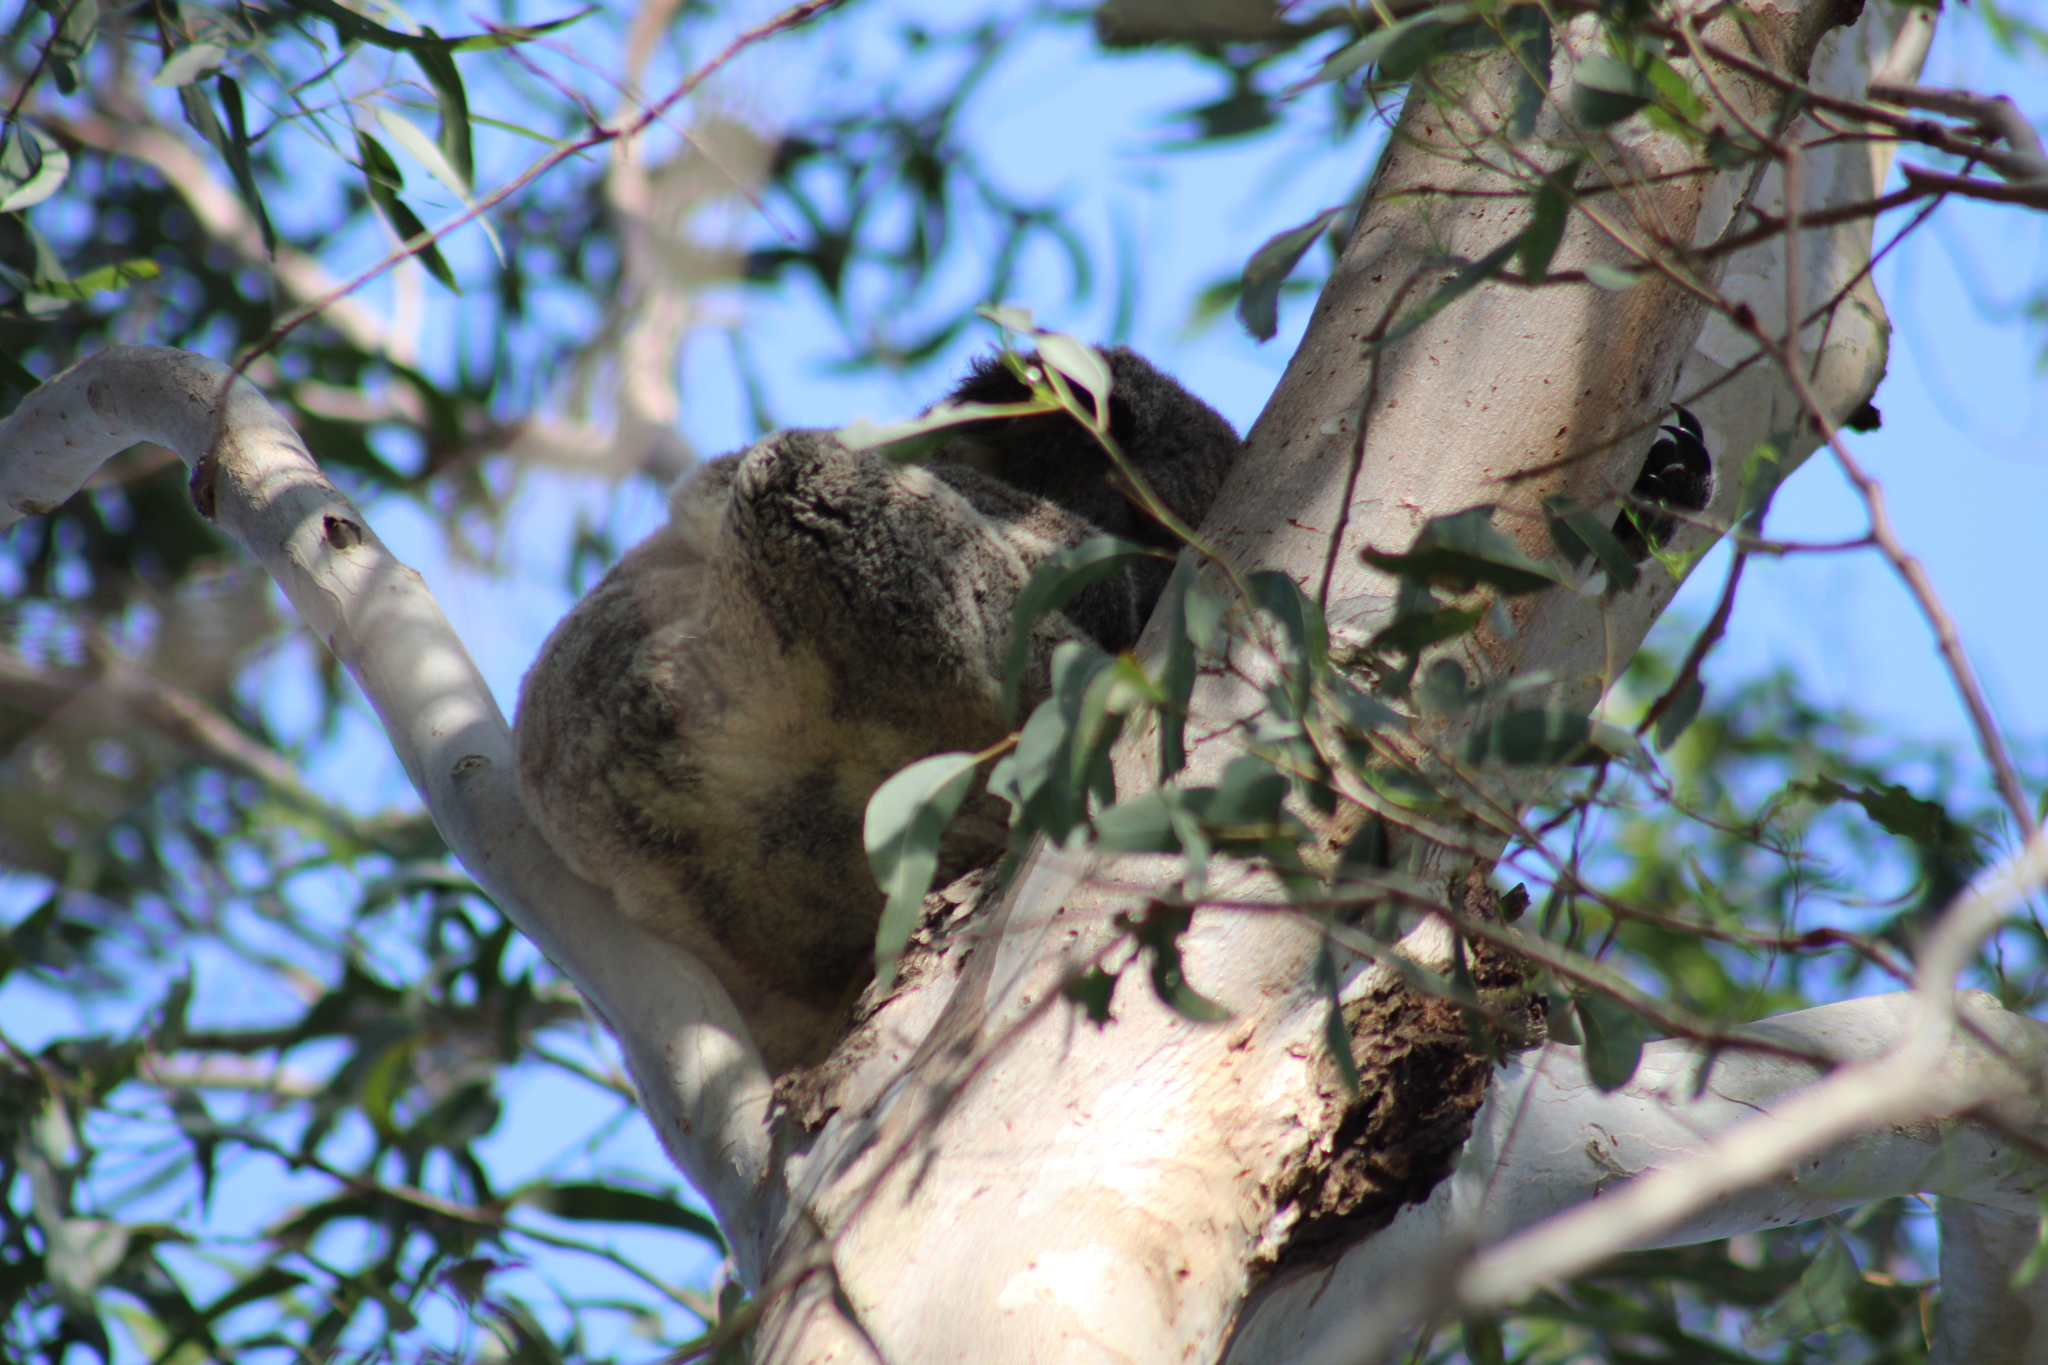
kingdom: Animalia
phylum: Chordata
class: Mammalia
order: Diprotodontia
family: Phascolarctidae
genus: Phascolarctos
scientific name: Phascolarctos cinereus
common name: Koala
